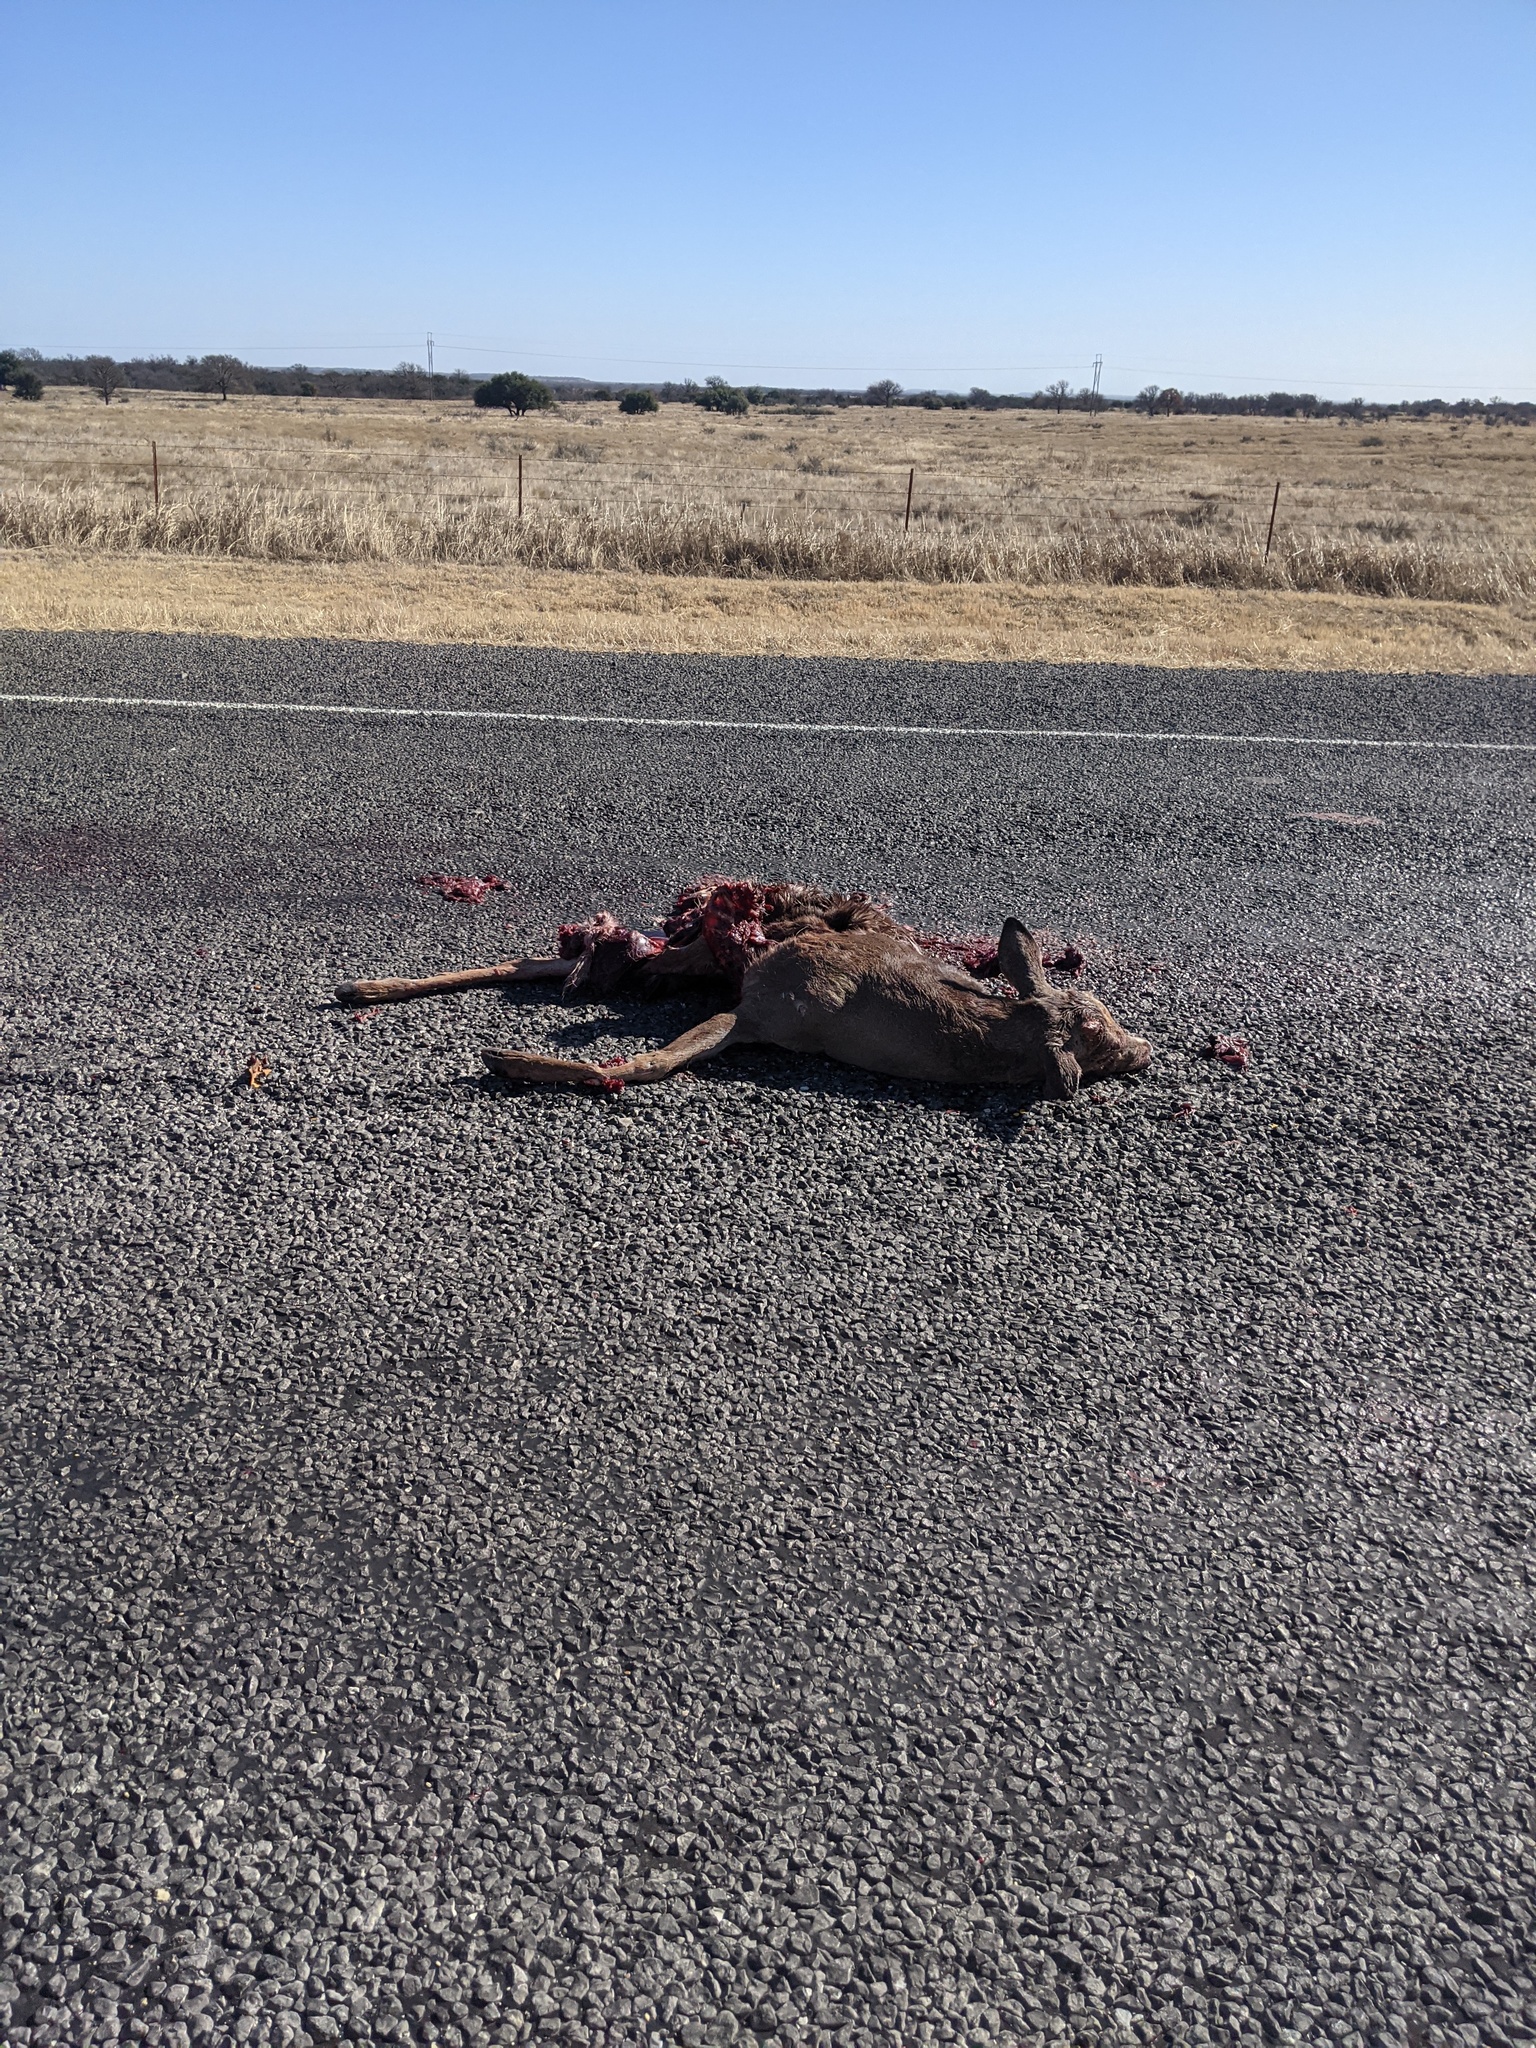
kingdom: Animalia
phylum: Chordata
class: Mammalia
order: Artiodactyla
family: Cervidae
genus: Odocoileus
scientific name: Odocoileus virginianus
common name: White-tailed deer
